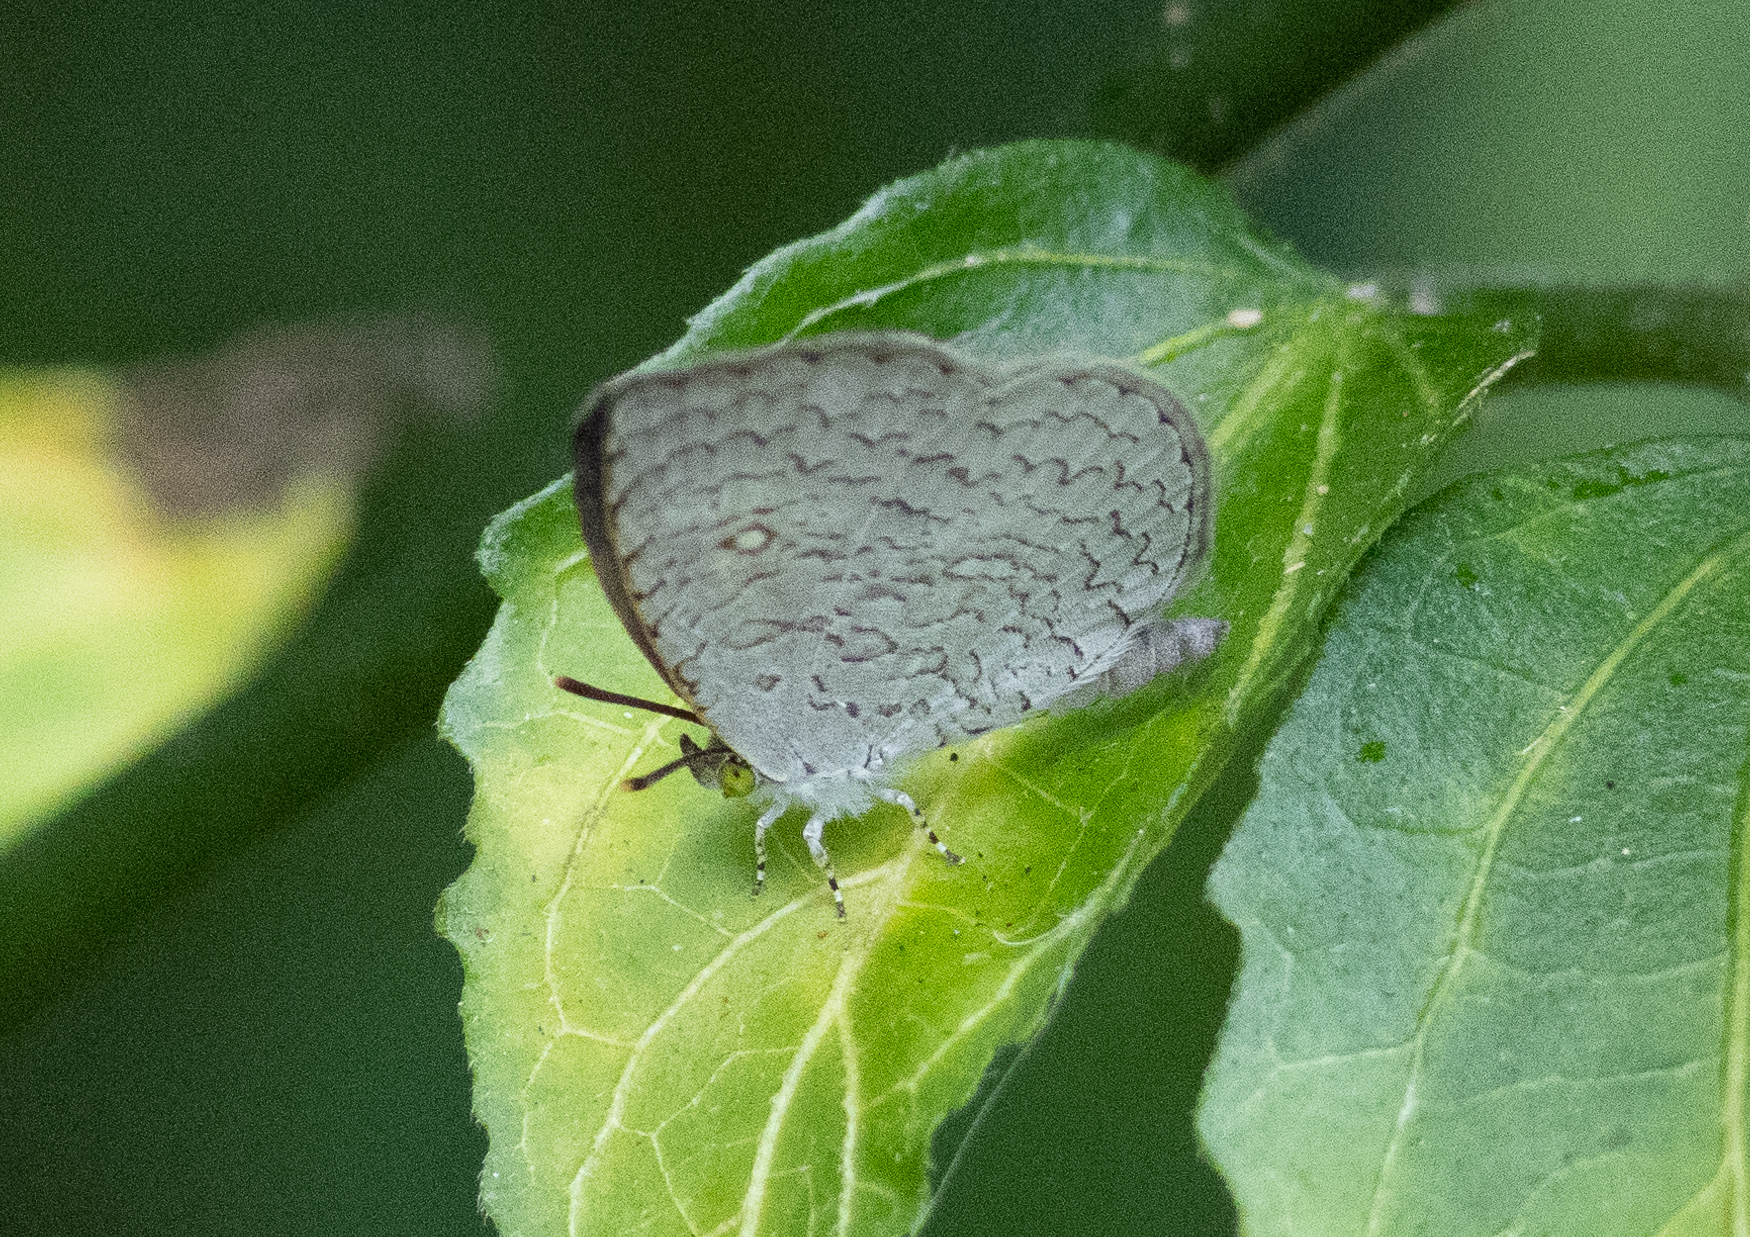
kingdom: Animalia
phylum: Arthropoda
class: Insecta
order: Lepidoptera
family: Lycaenidae
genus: Spalgis
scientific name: Spalgis epius
